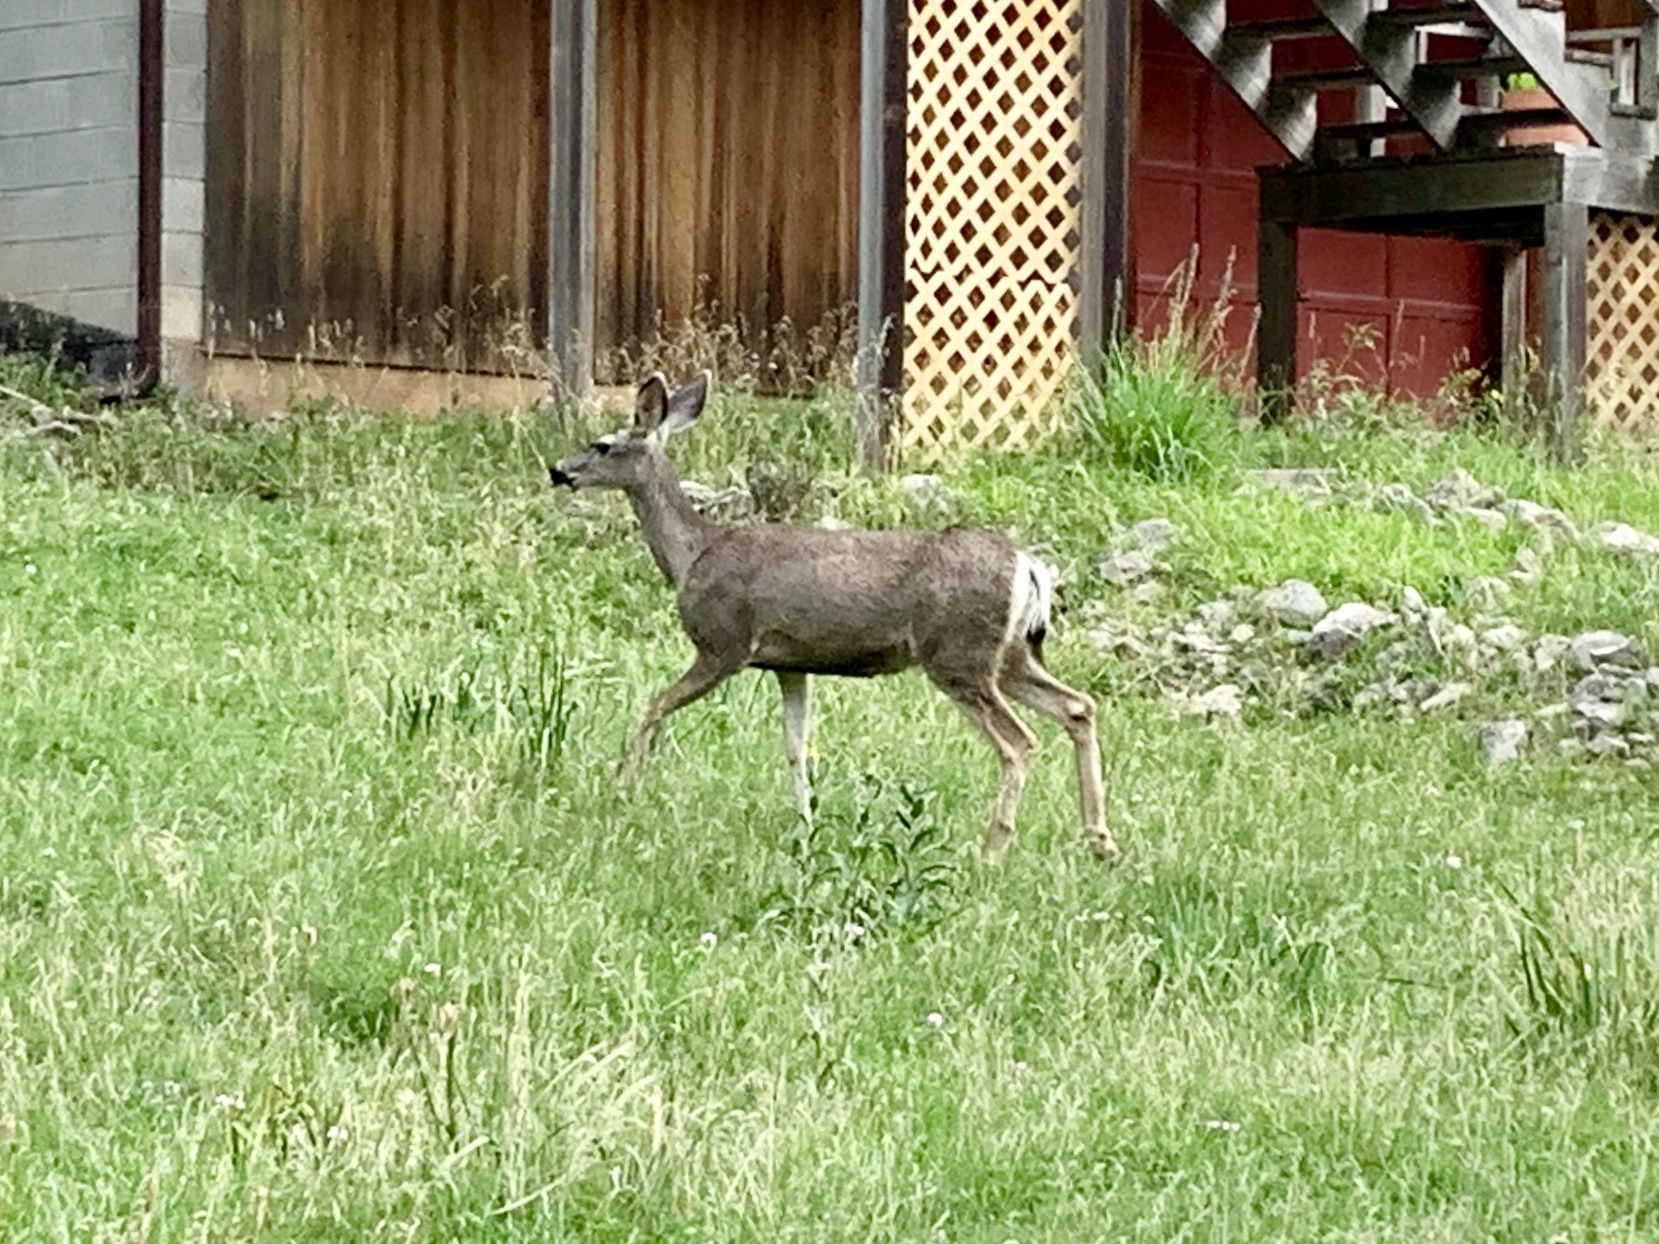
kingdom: Animalia
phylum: Chordata
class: Mammalia
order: Artiodactyla
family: Cervidae
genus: Odocoileus
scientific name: Odocoileus hemionus
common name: Mule deer
